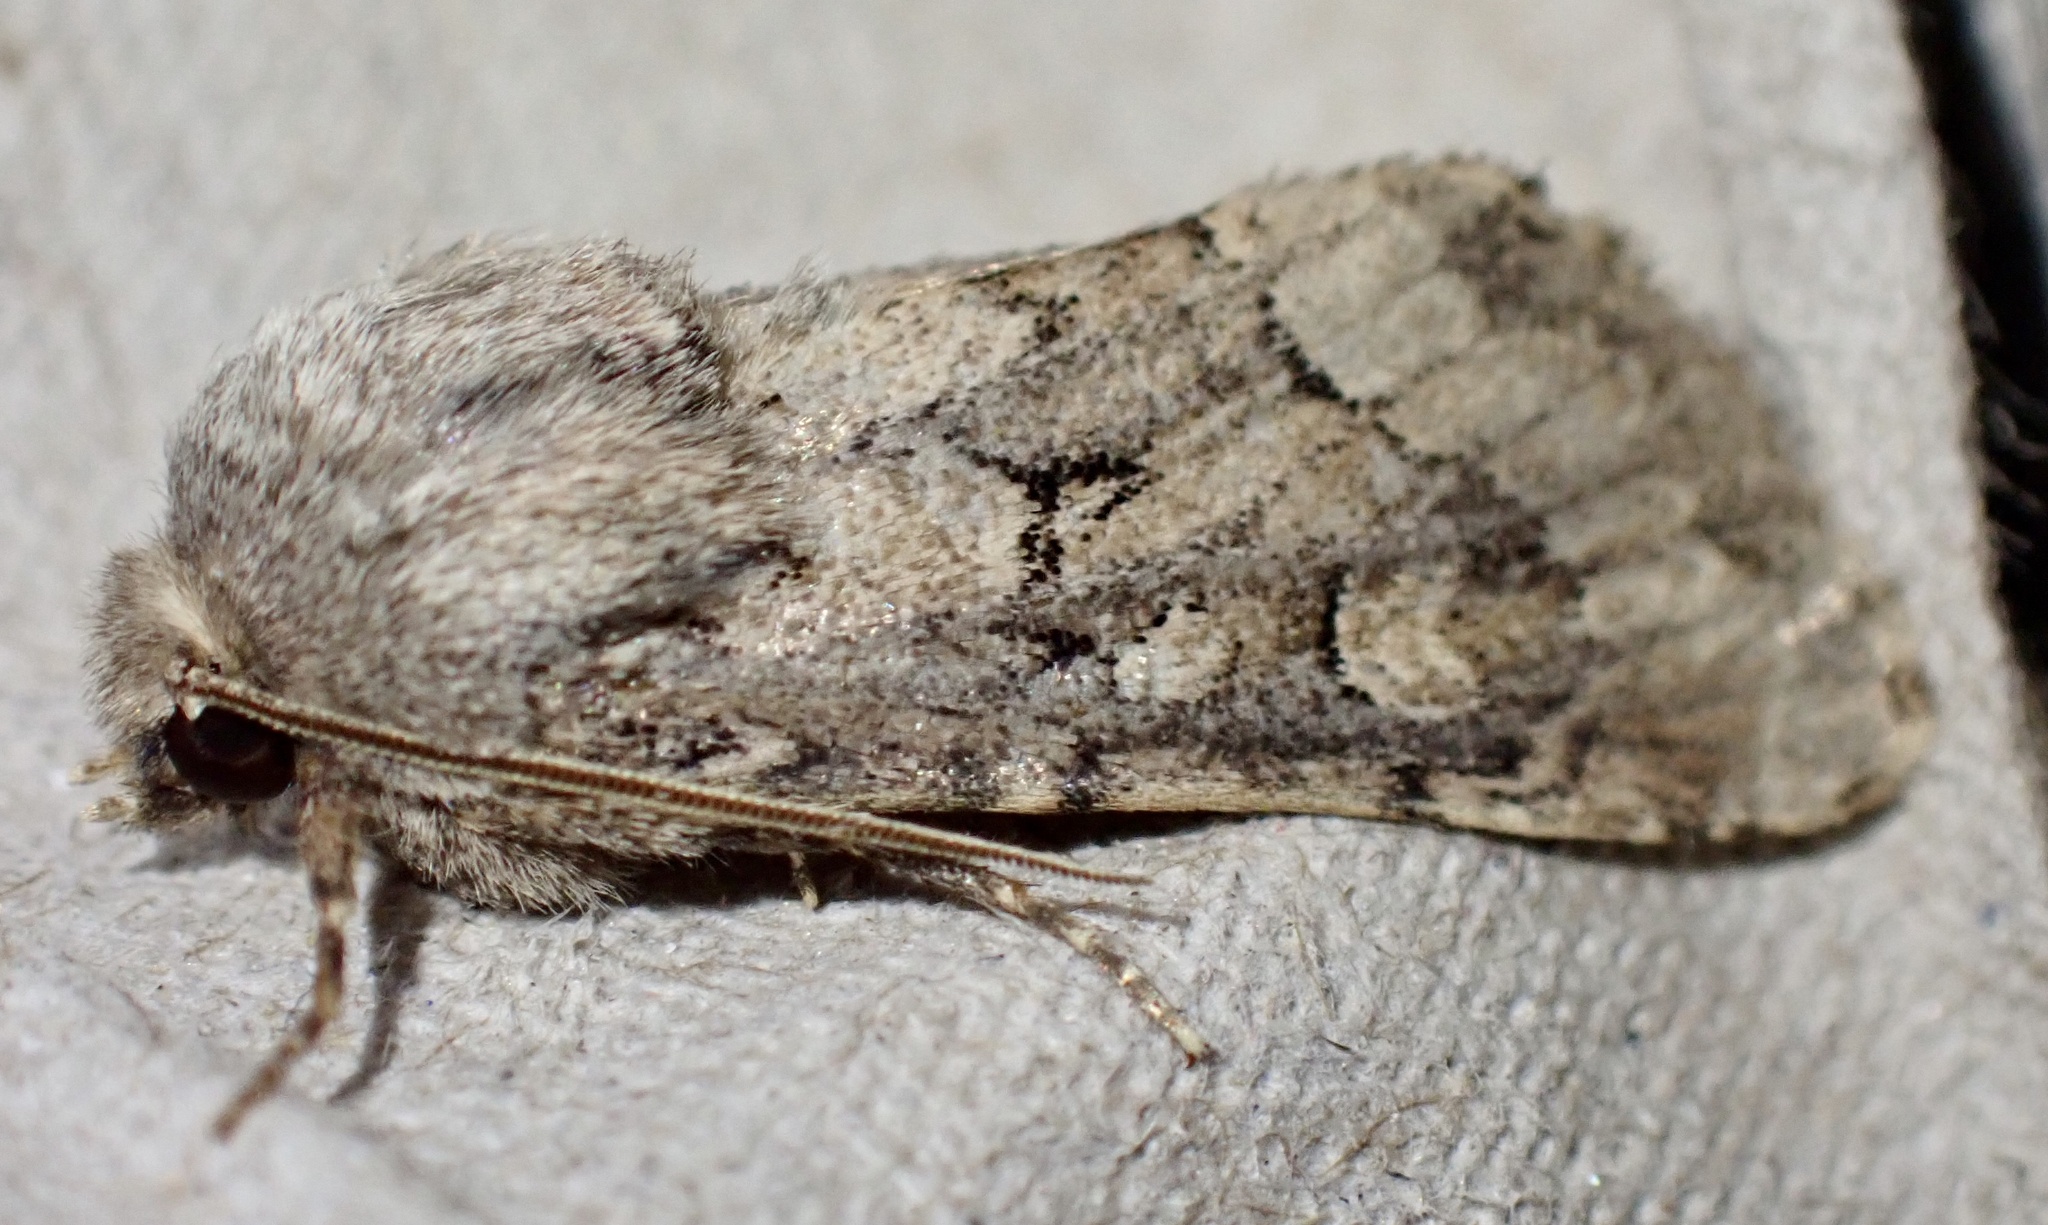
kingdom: Animalia
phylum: Arthropoda
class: Insecta
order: Lepidoptera
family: Noctuidae
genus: Luperina
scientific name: Luperina testacea
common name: Flounced rustic
